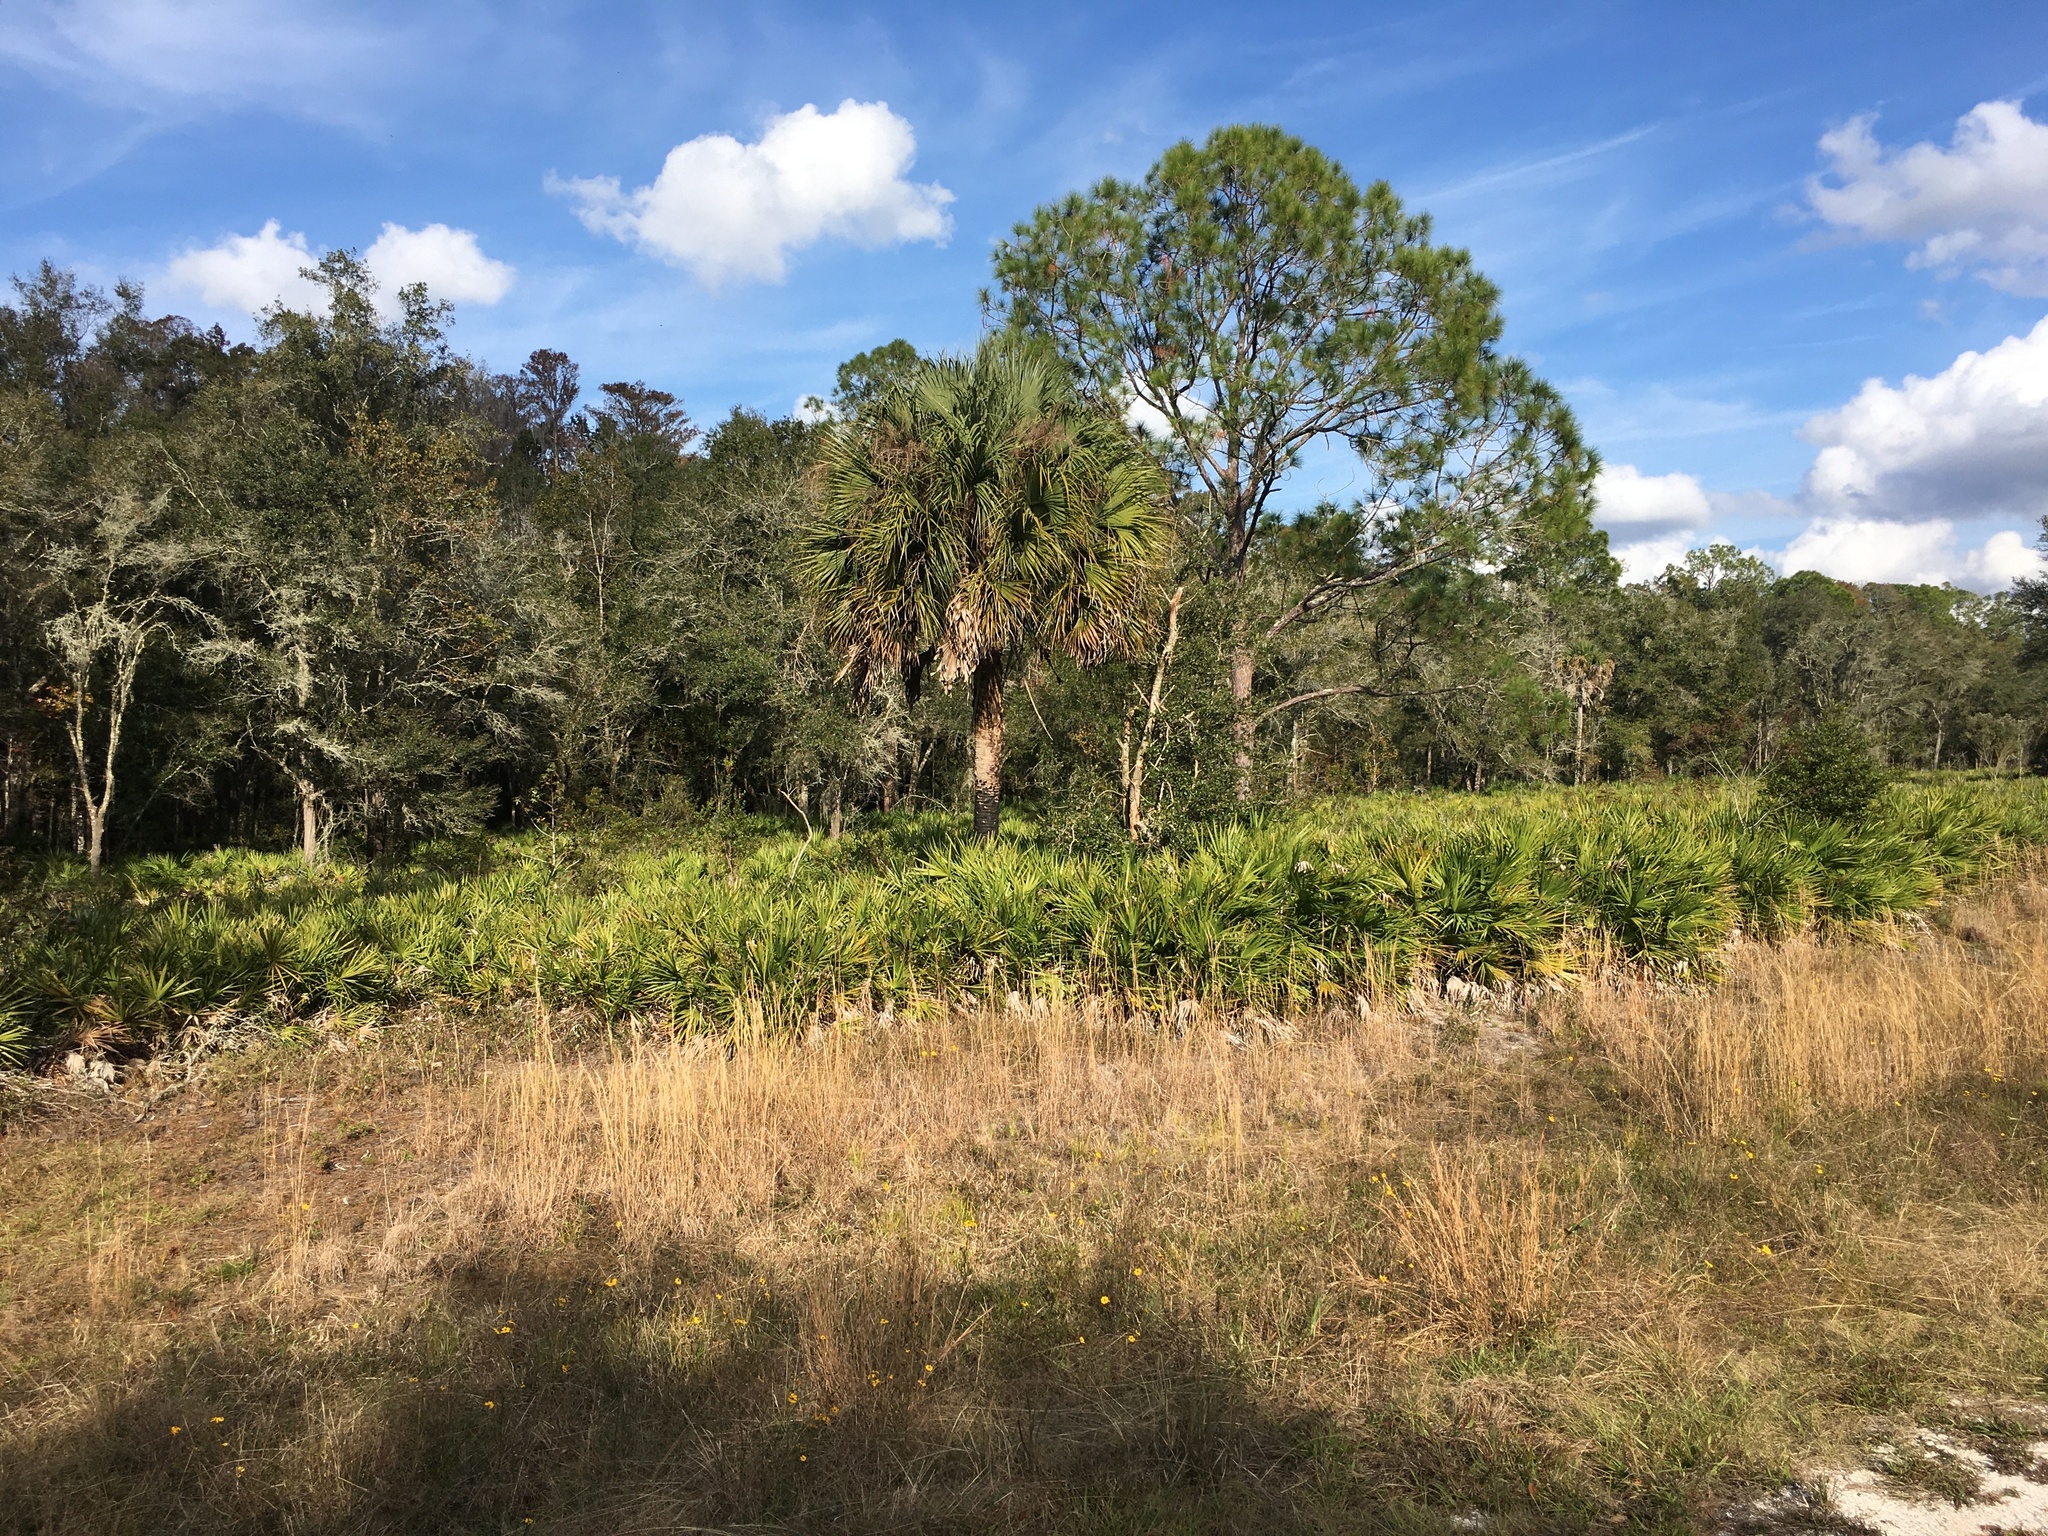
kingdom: Plantae
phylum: Tracheophyta
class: Liliopsida
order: Arecales
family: Arecaceae
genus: Serenoa
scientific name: Serenoa repens
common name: Saw-palmetto
